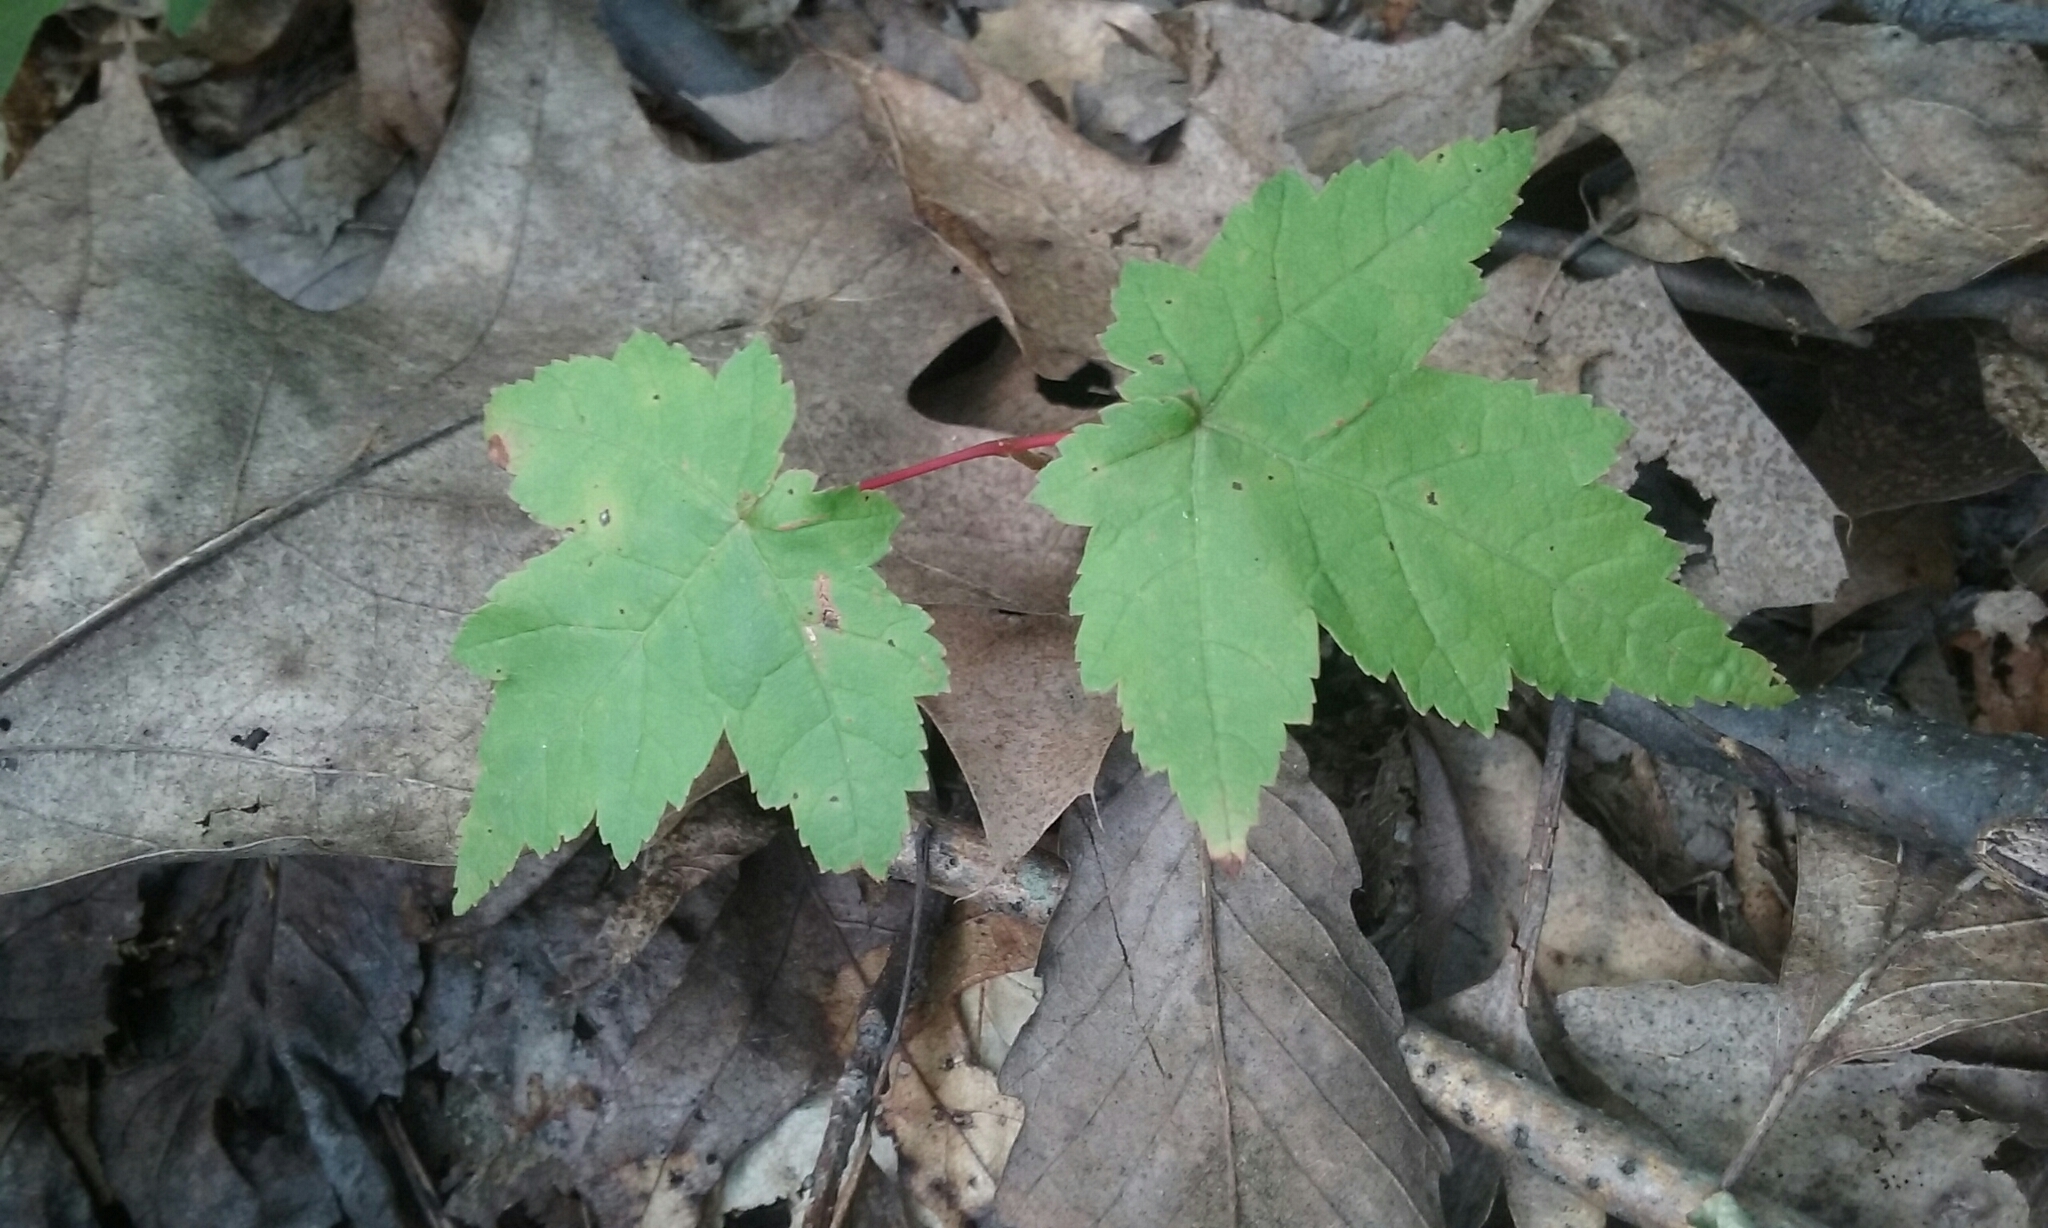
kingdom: Plantae
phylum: Tracheophyta
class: Magnoliopsida
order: Sapindales
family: Sapindaceae
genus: Acer
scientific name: Acer rubrum
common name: Red maple
